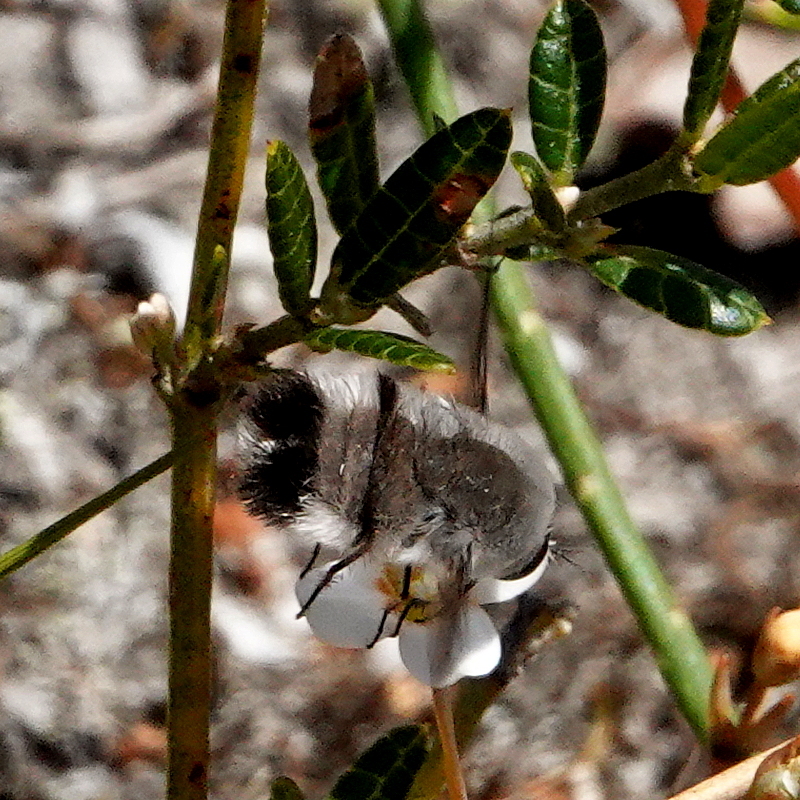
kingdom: Animalia
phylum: Arthropoda
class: Insecta
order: Diptera
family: Bombyliidae
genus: Meomyia
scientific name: Meomyia albiceps
